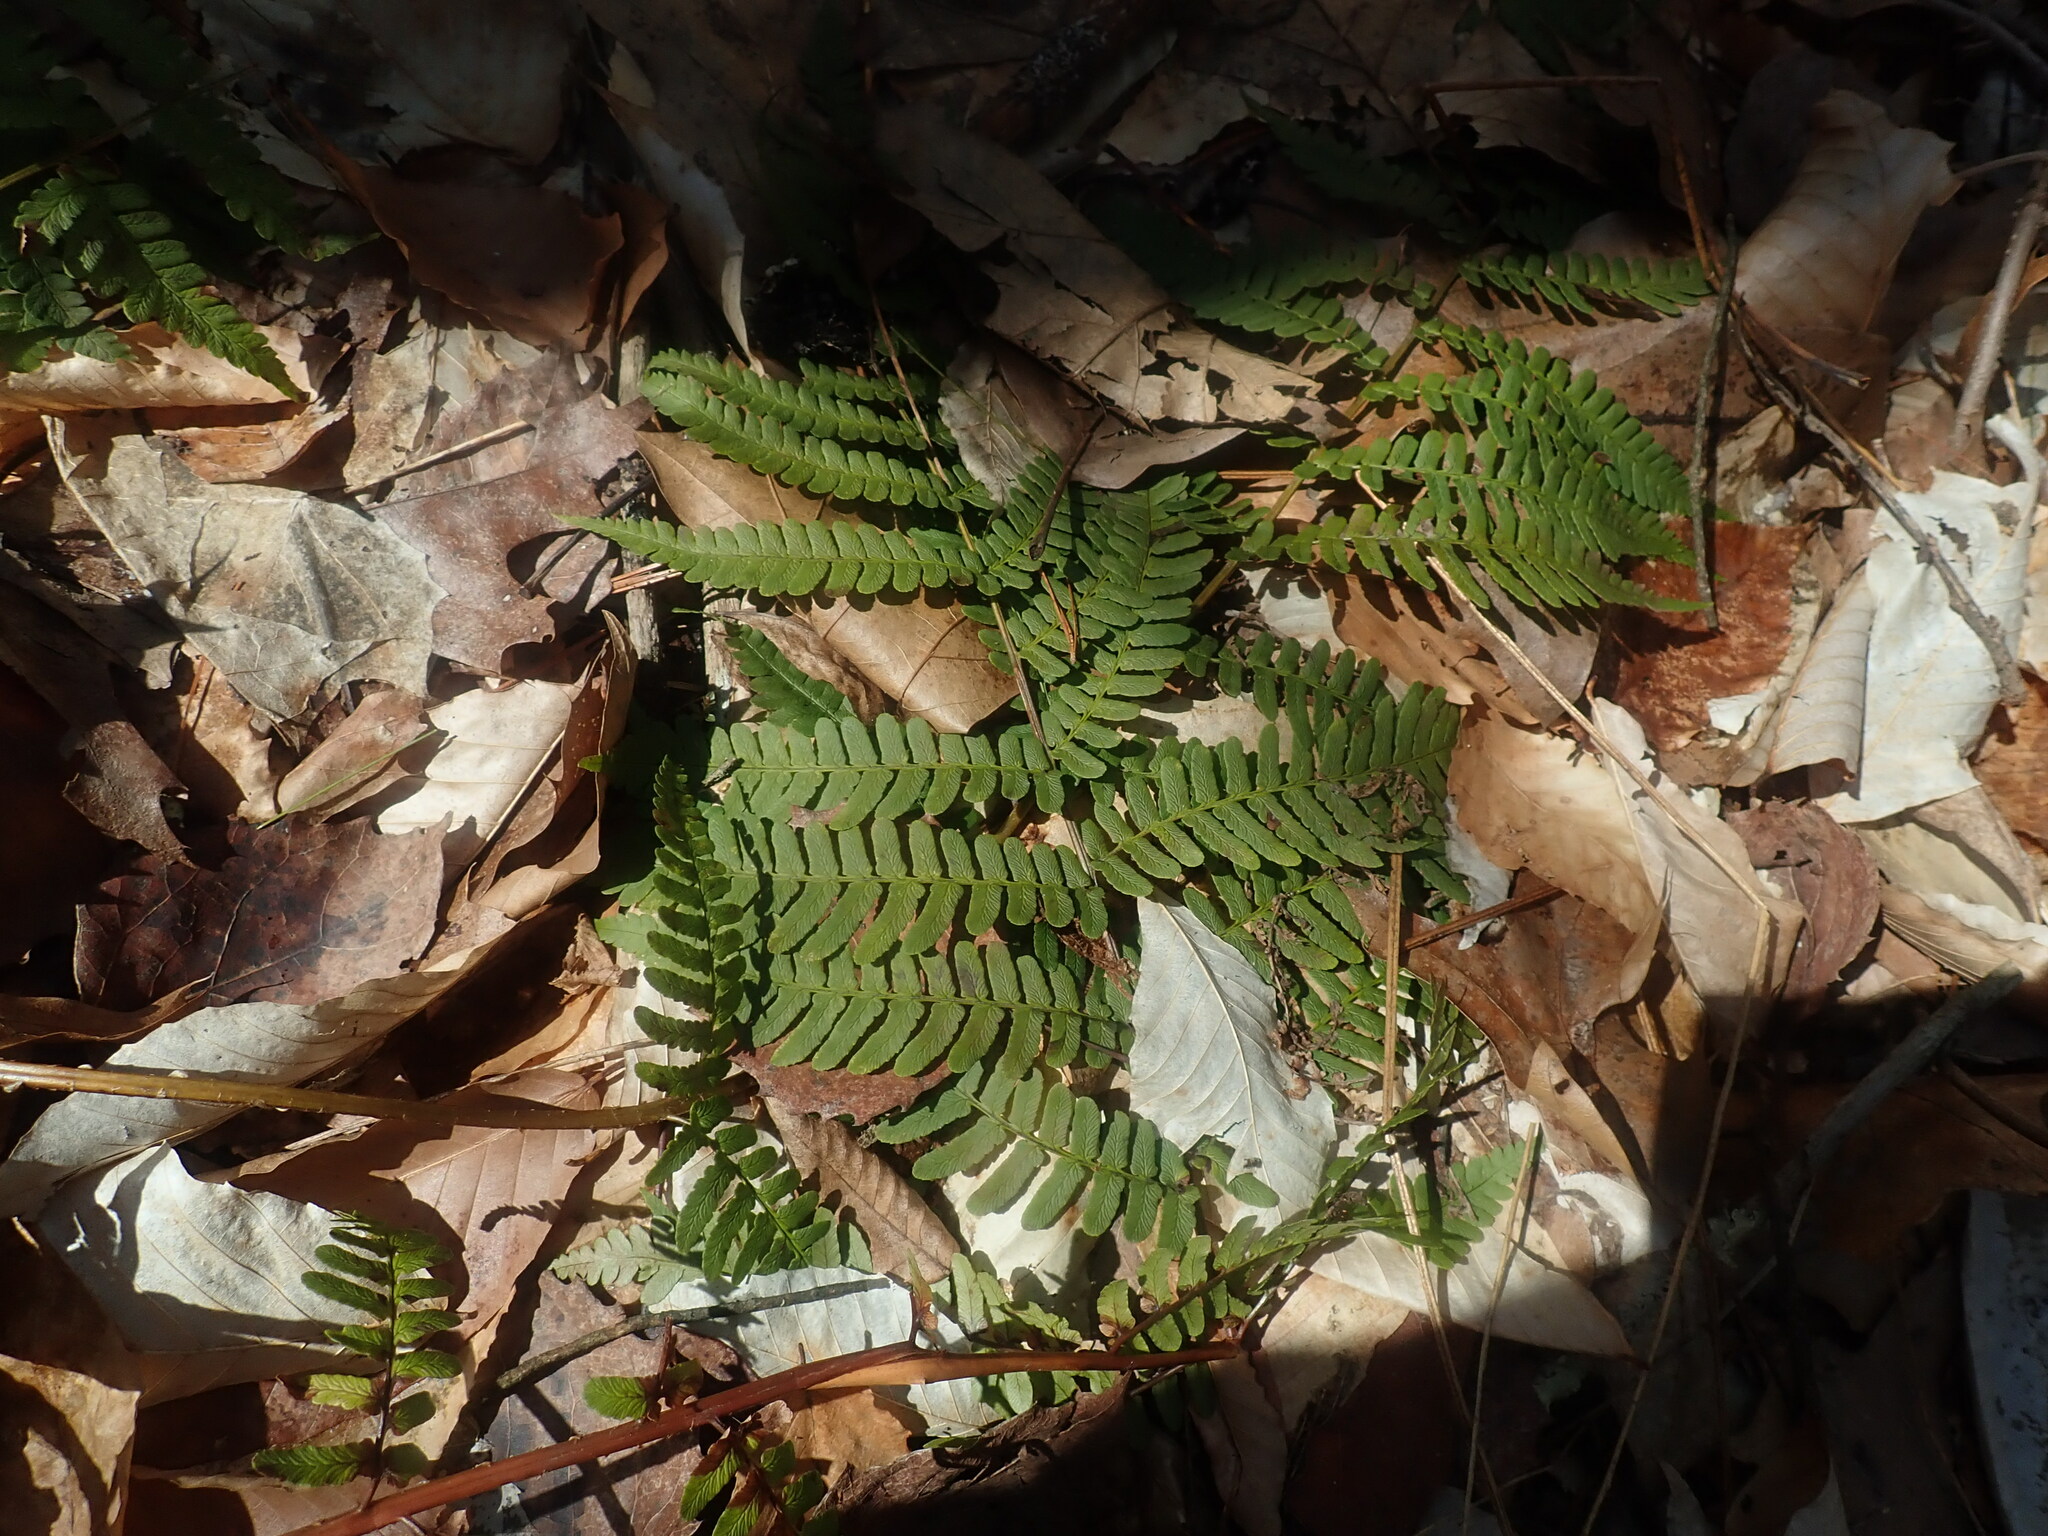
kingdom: Plantae
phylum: Tracheophyta
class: Polypodiopsida
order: Polypodiales
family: Dryopteridaceae
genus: Dryopteris
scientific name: Dryopteris marginalis
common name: Marginal wood fern
